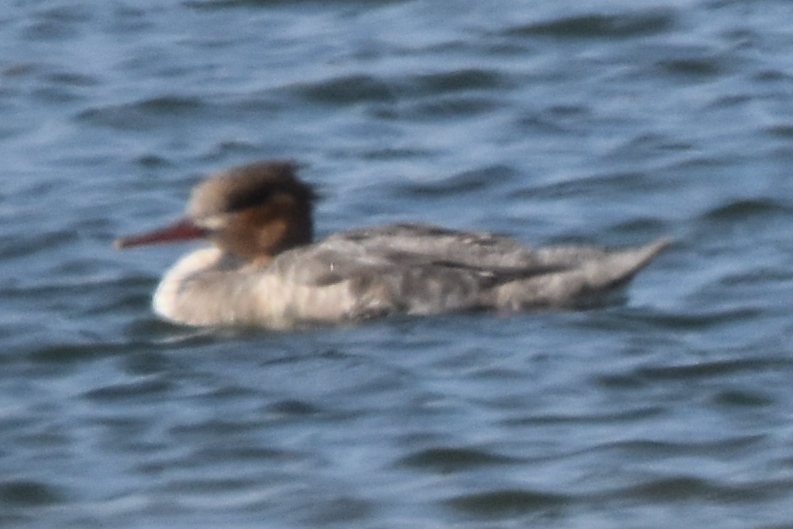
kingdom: Animalia
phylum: Chordata
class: Aves
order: Anseriformes
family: Anatidae
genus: Mergus
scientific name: Mergus serrator
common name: Red-breasted merganser
